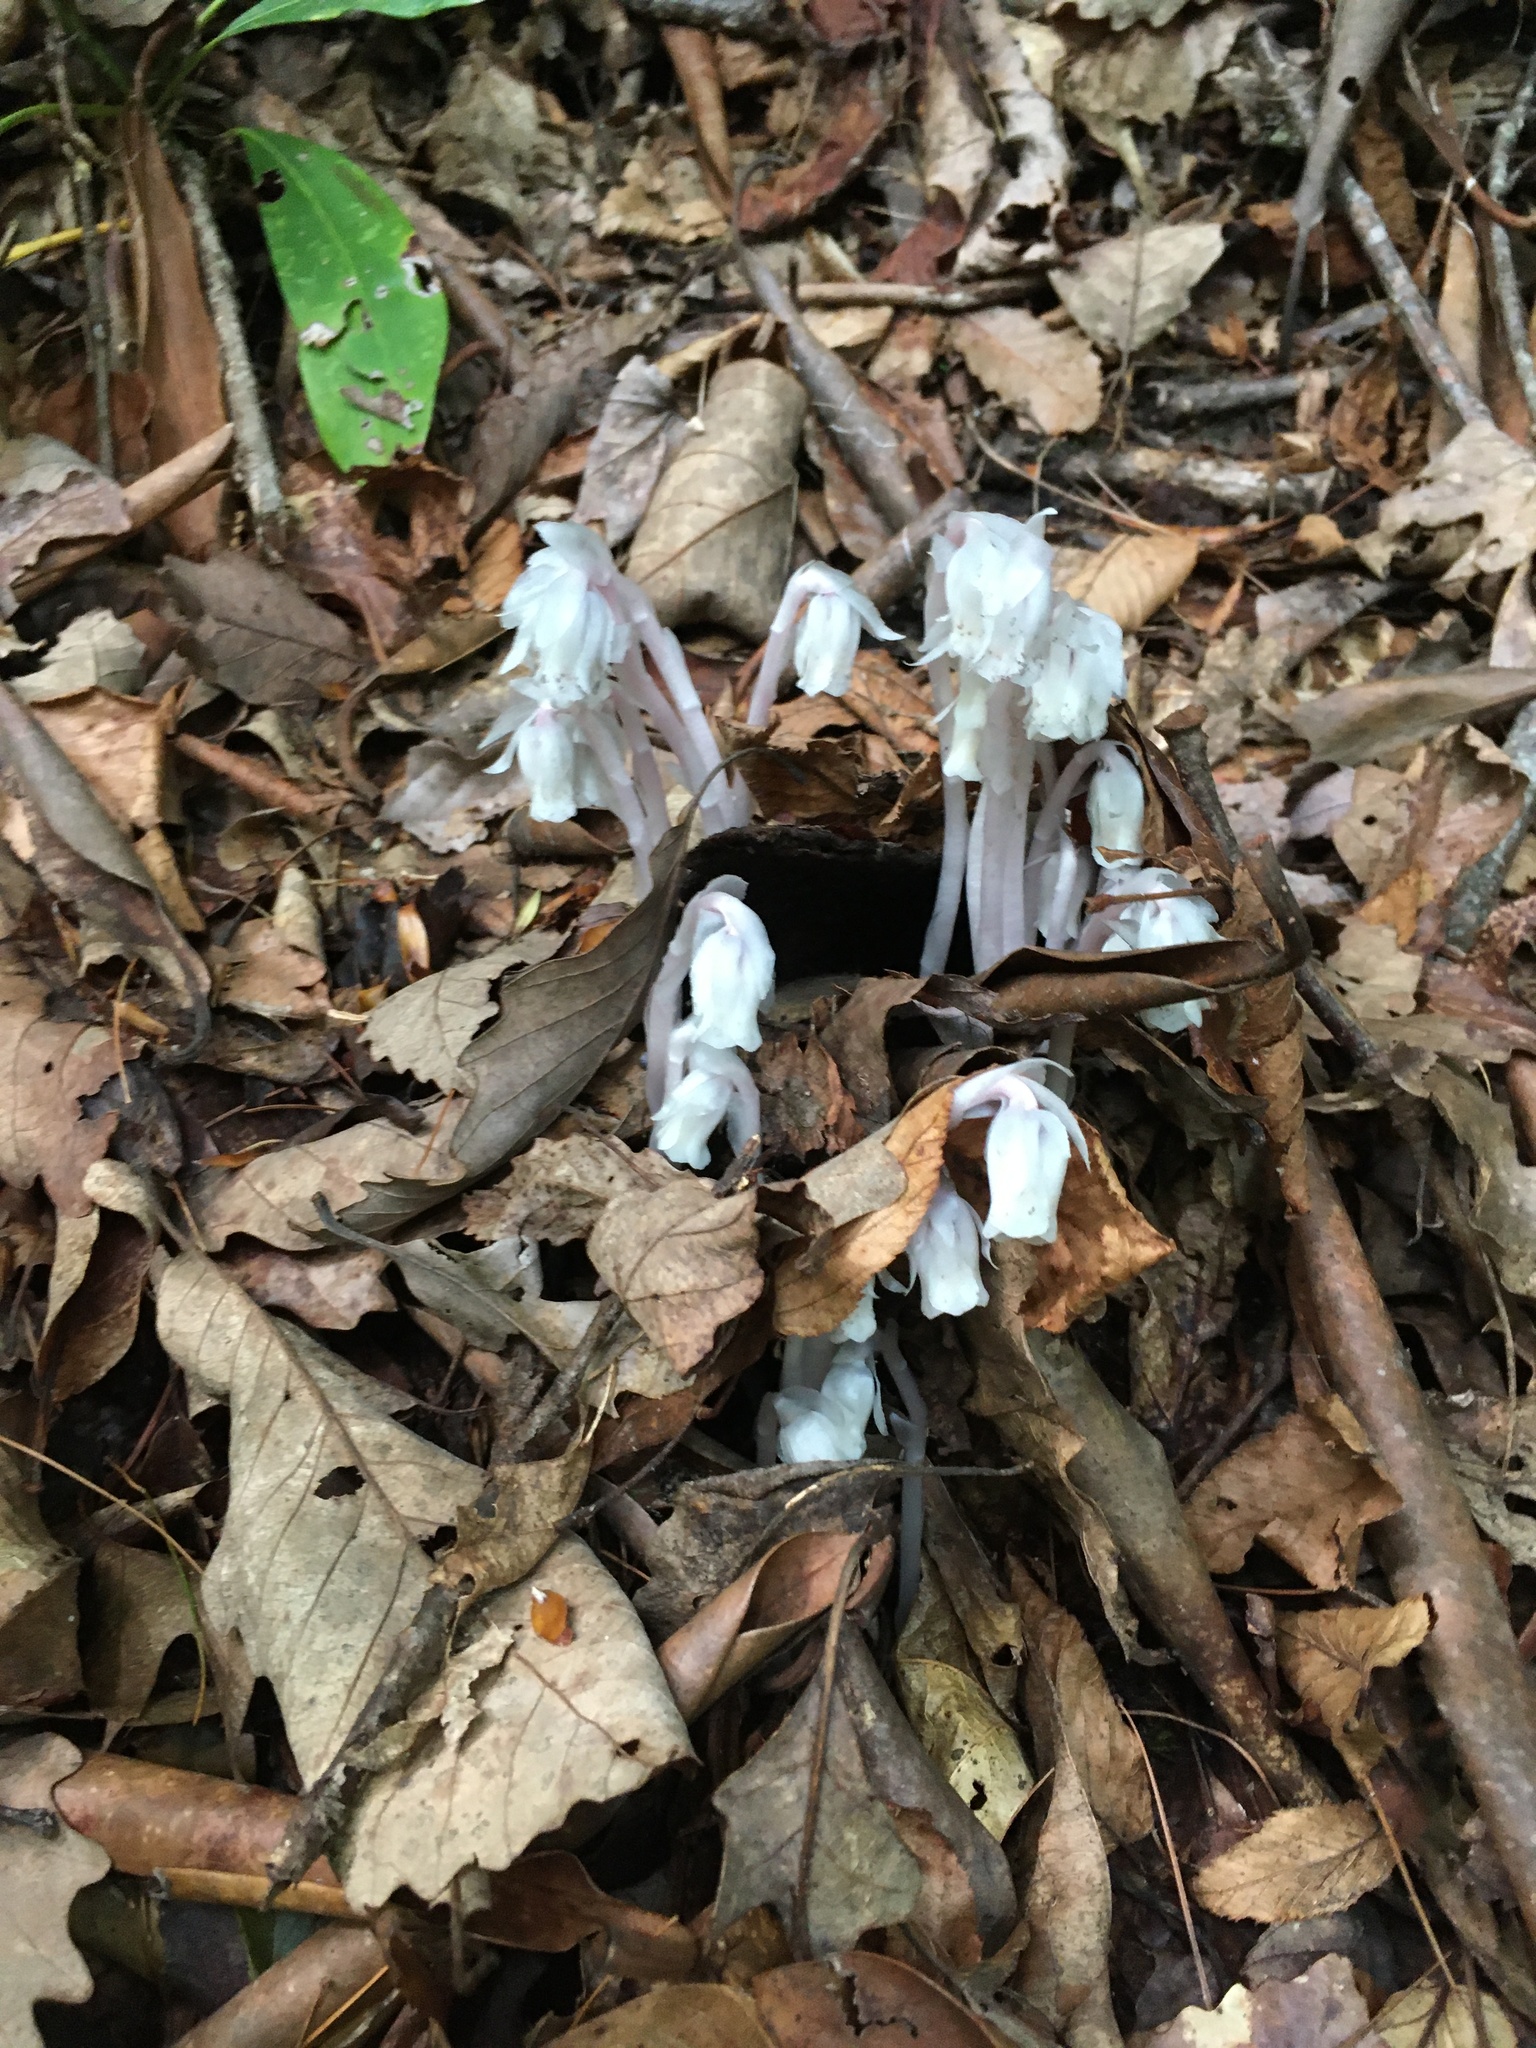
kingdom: Plantae
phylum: Tracheophyta
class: Magnoliopsida
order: Ericales
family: Ericaceae
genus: Monotropa
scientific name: Monotropa uniflora
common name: Convulsion root
